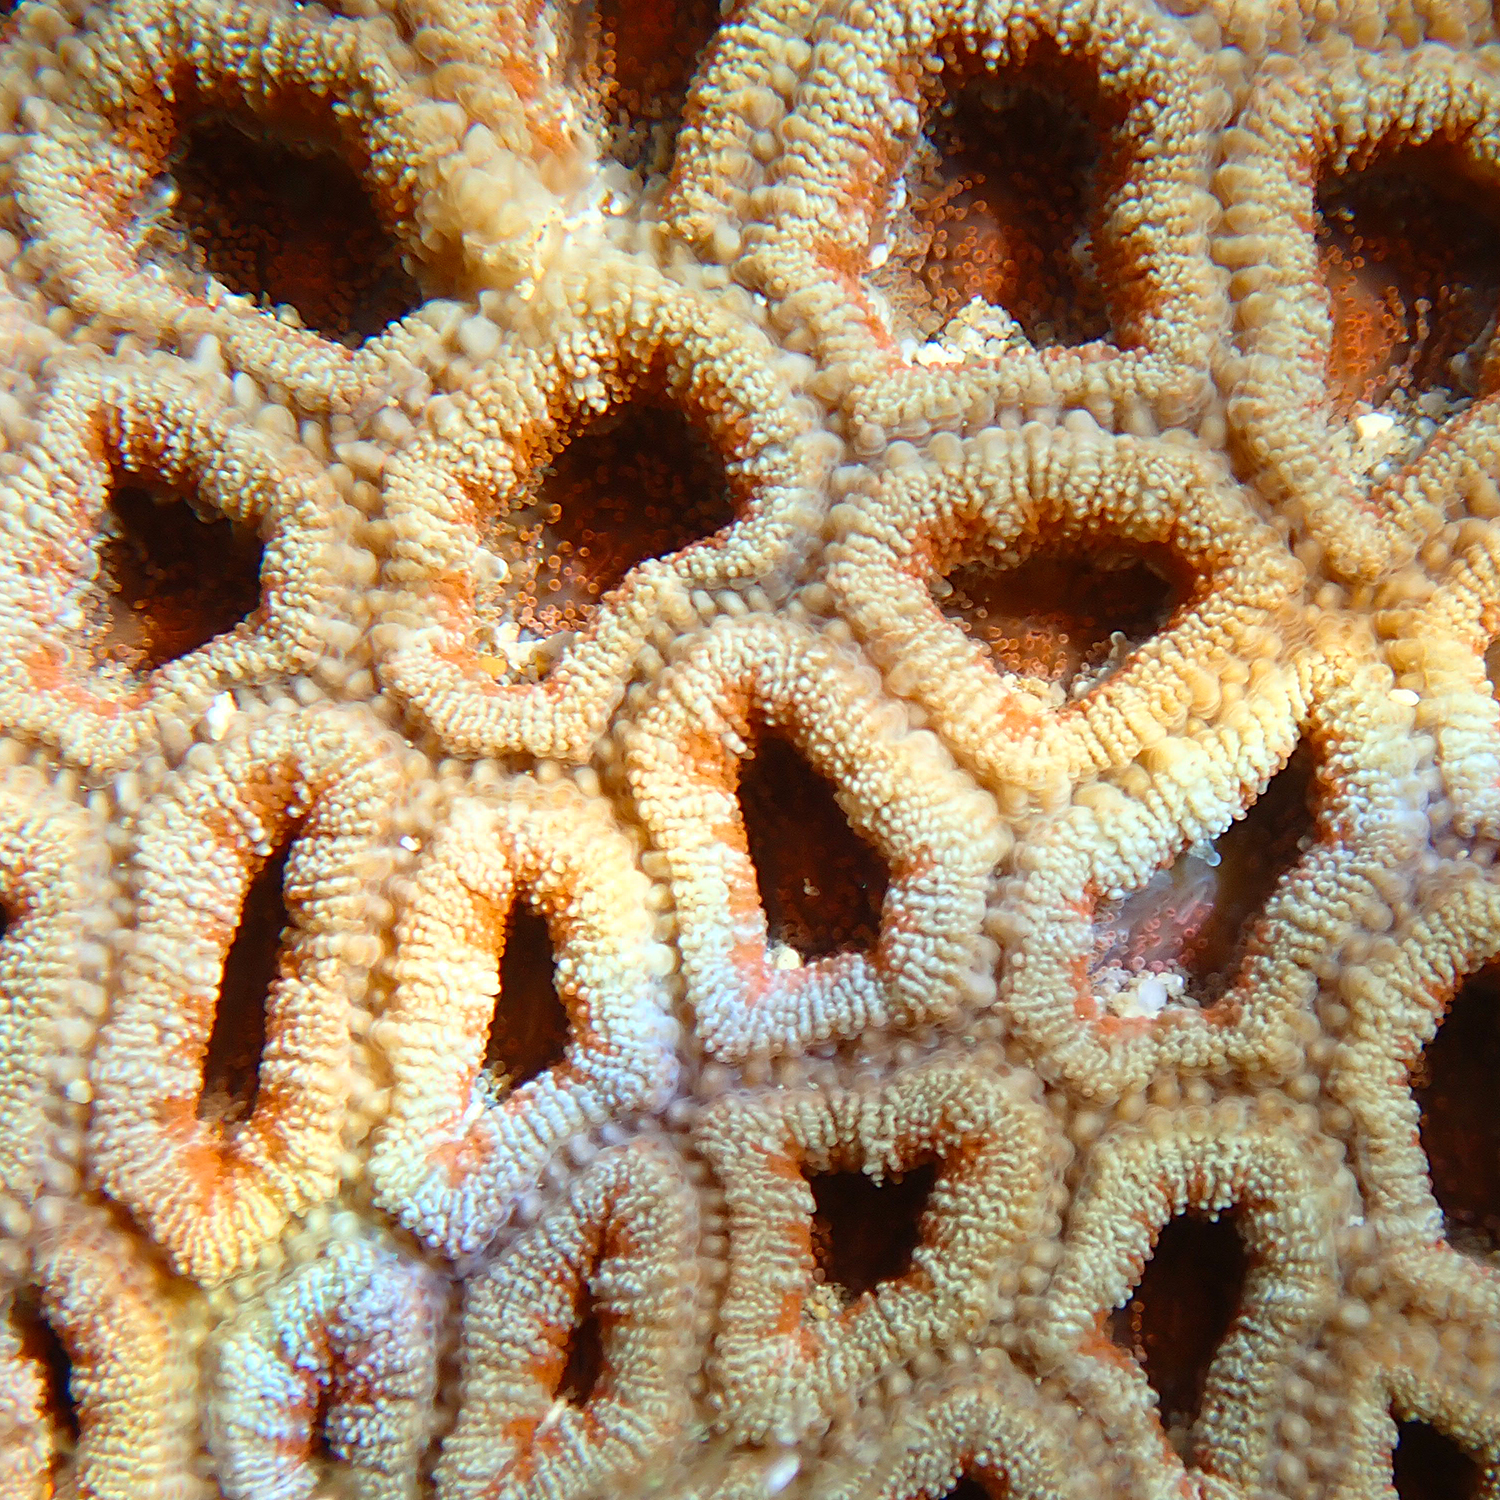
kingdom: Animalia
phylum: Cnidaria
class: Anthozoa
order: Scleractinia
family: Lobophylliidae
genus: Micromussa
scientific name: Micromussa lordhowensis
